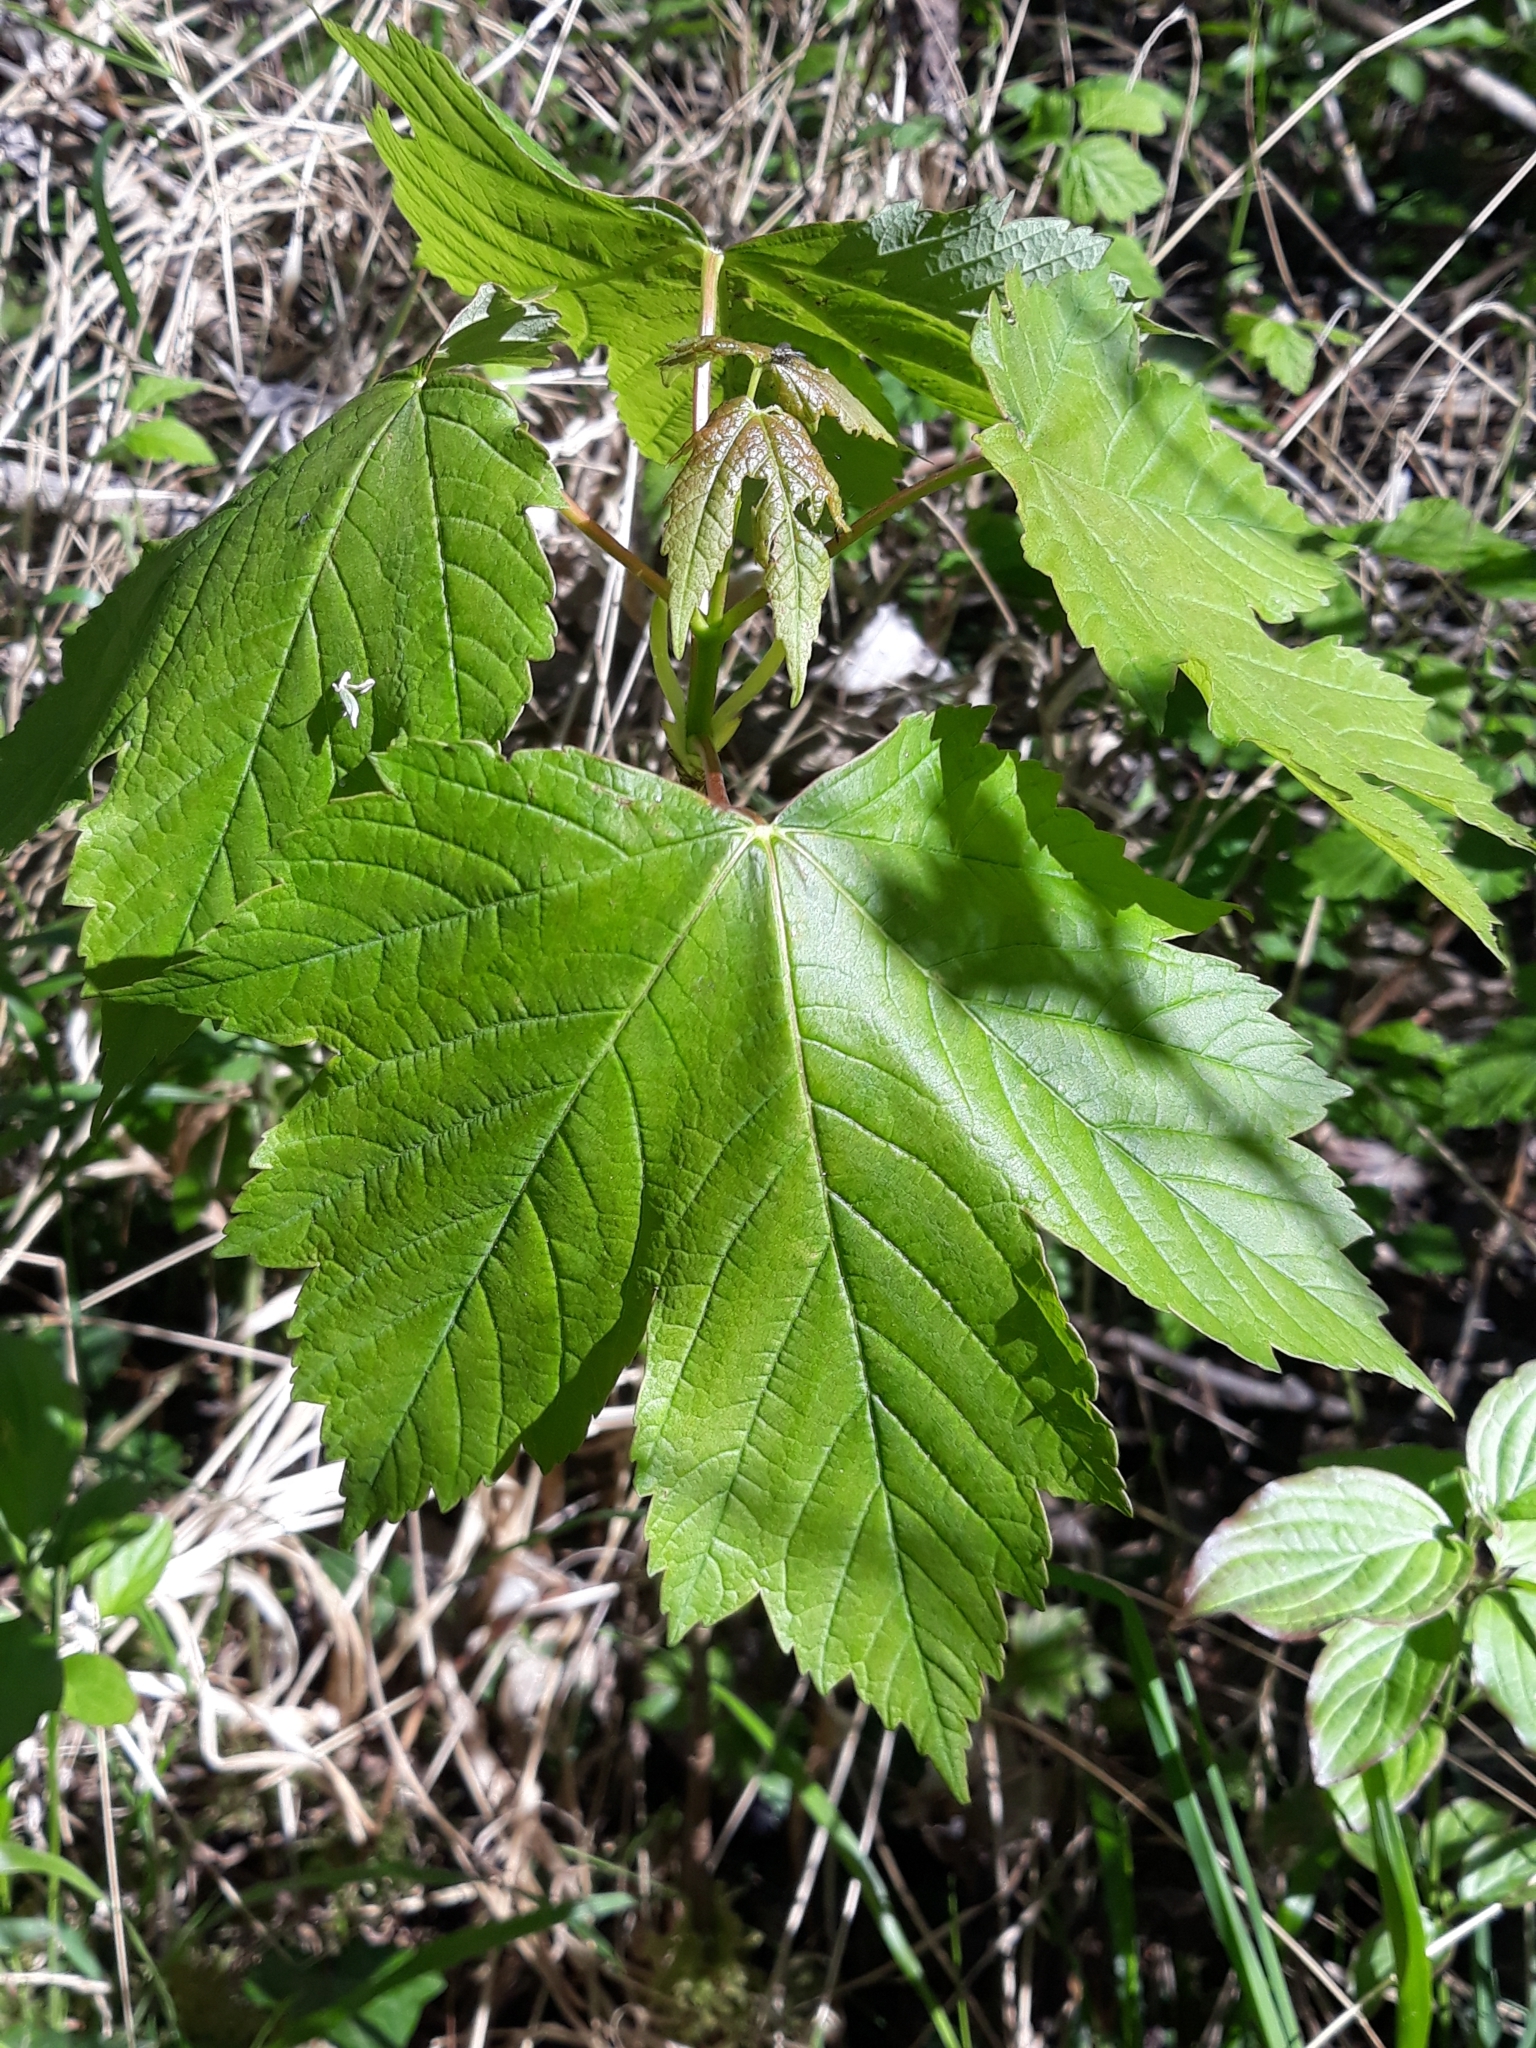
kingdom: Plantae
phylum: Tracheophyta
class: Magnoliopsida
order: Sapindales
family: Sapindaceae
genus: Acer
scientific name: Acer pseudoplatanus
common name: Sycamore
